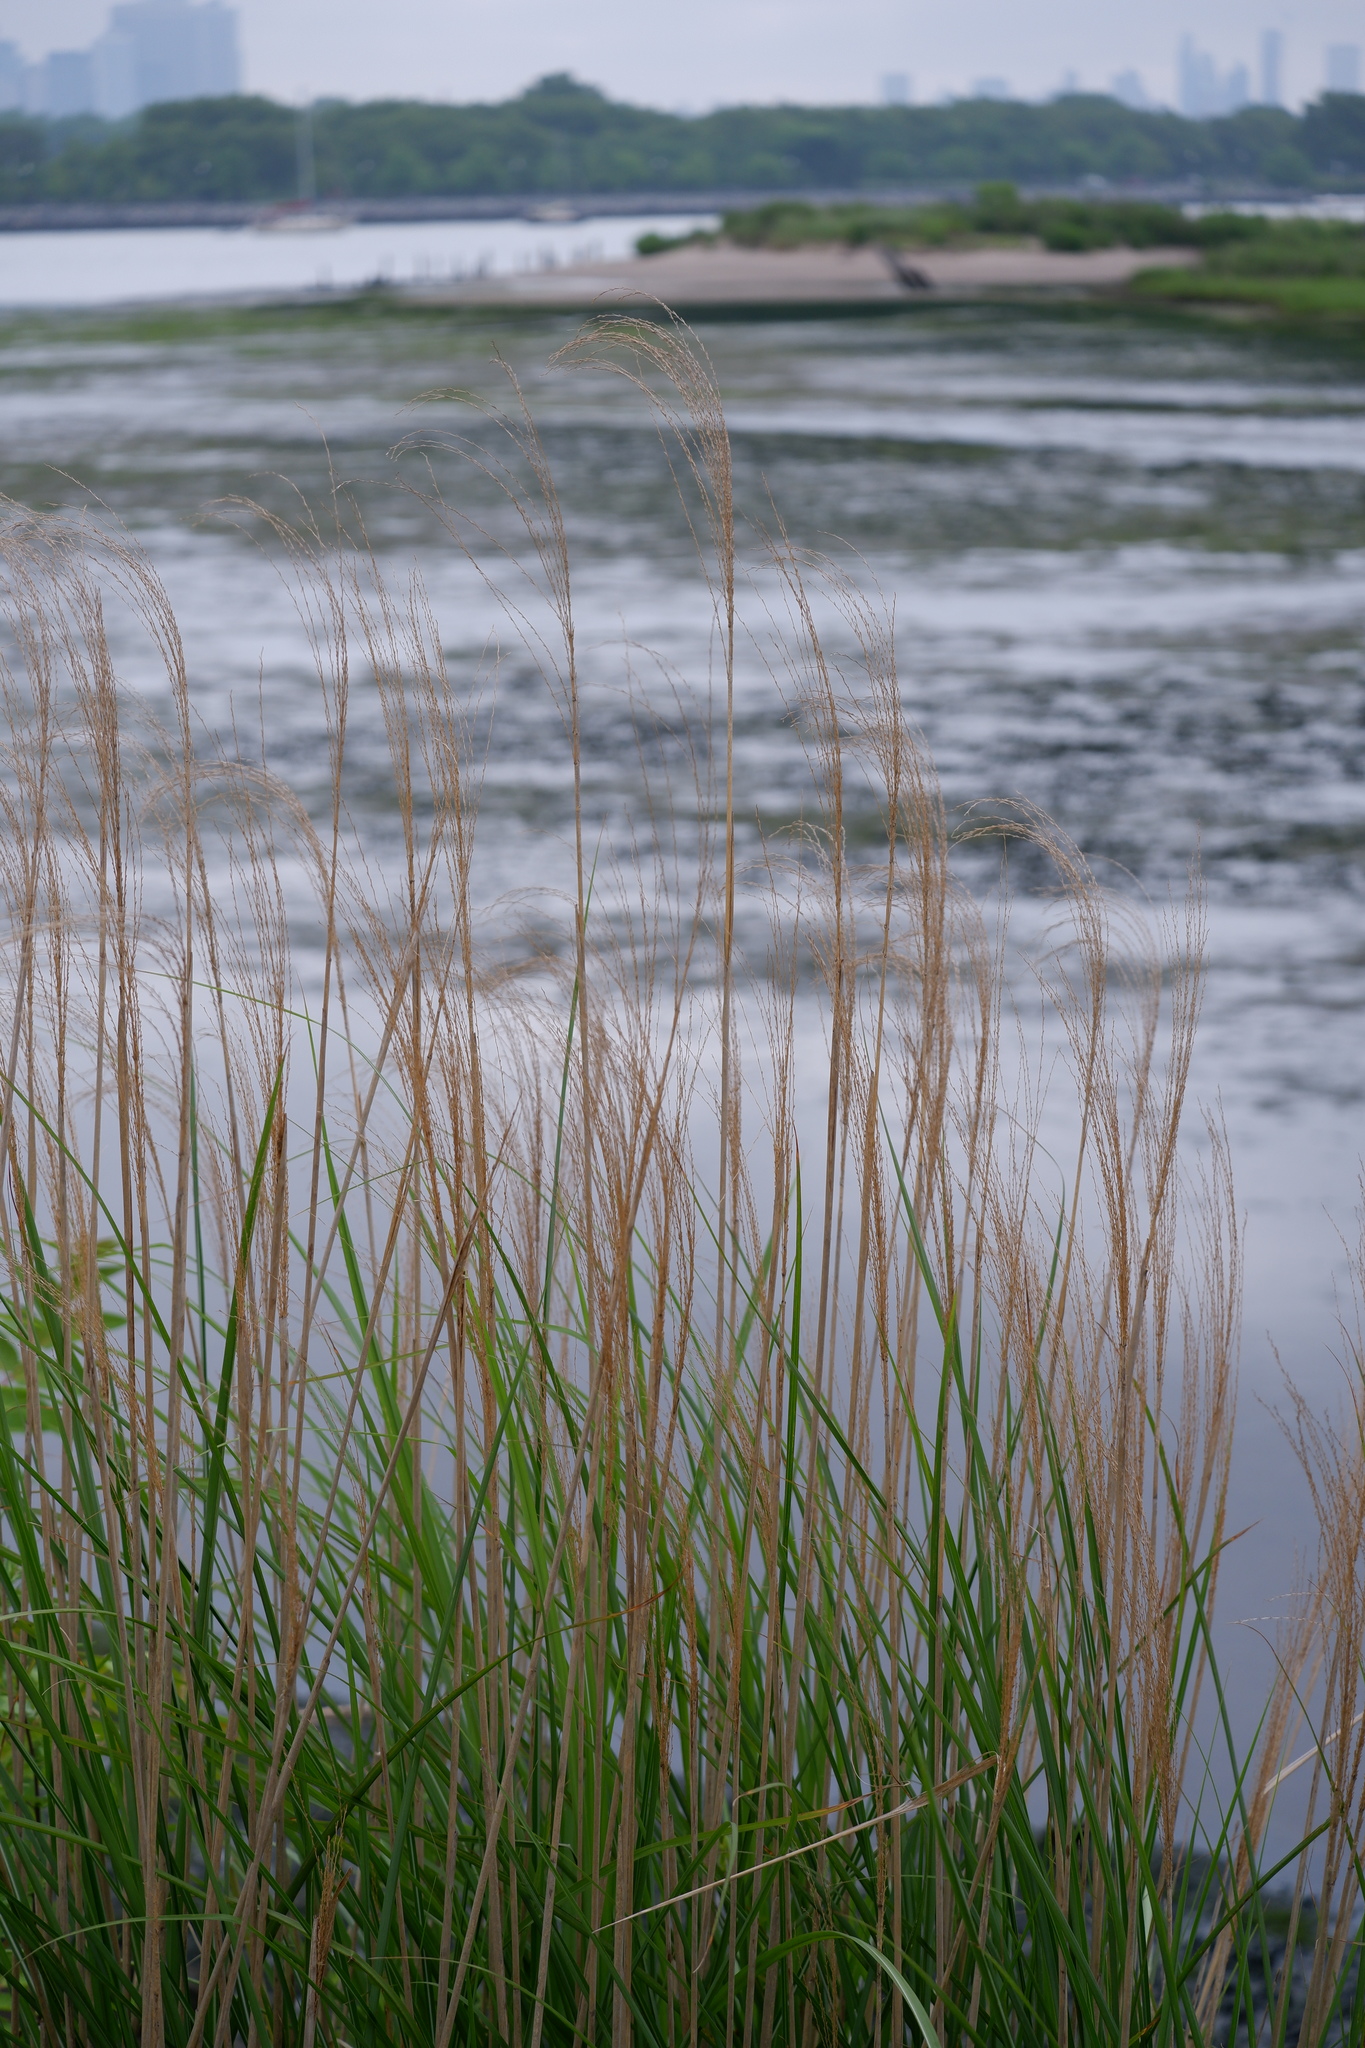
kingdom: Plantae
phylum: Tracheophyta
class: Liliopsida
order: Poales
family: Poaceae
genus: Miscanthus
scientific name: Miscanthus sinensis
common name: Chinese silvergrass
